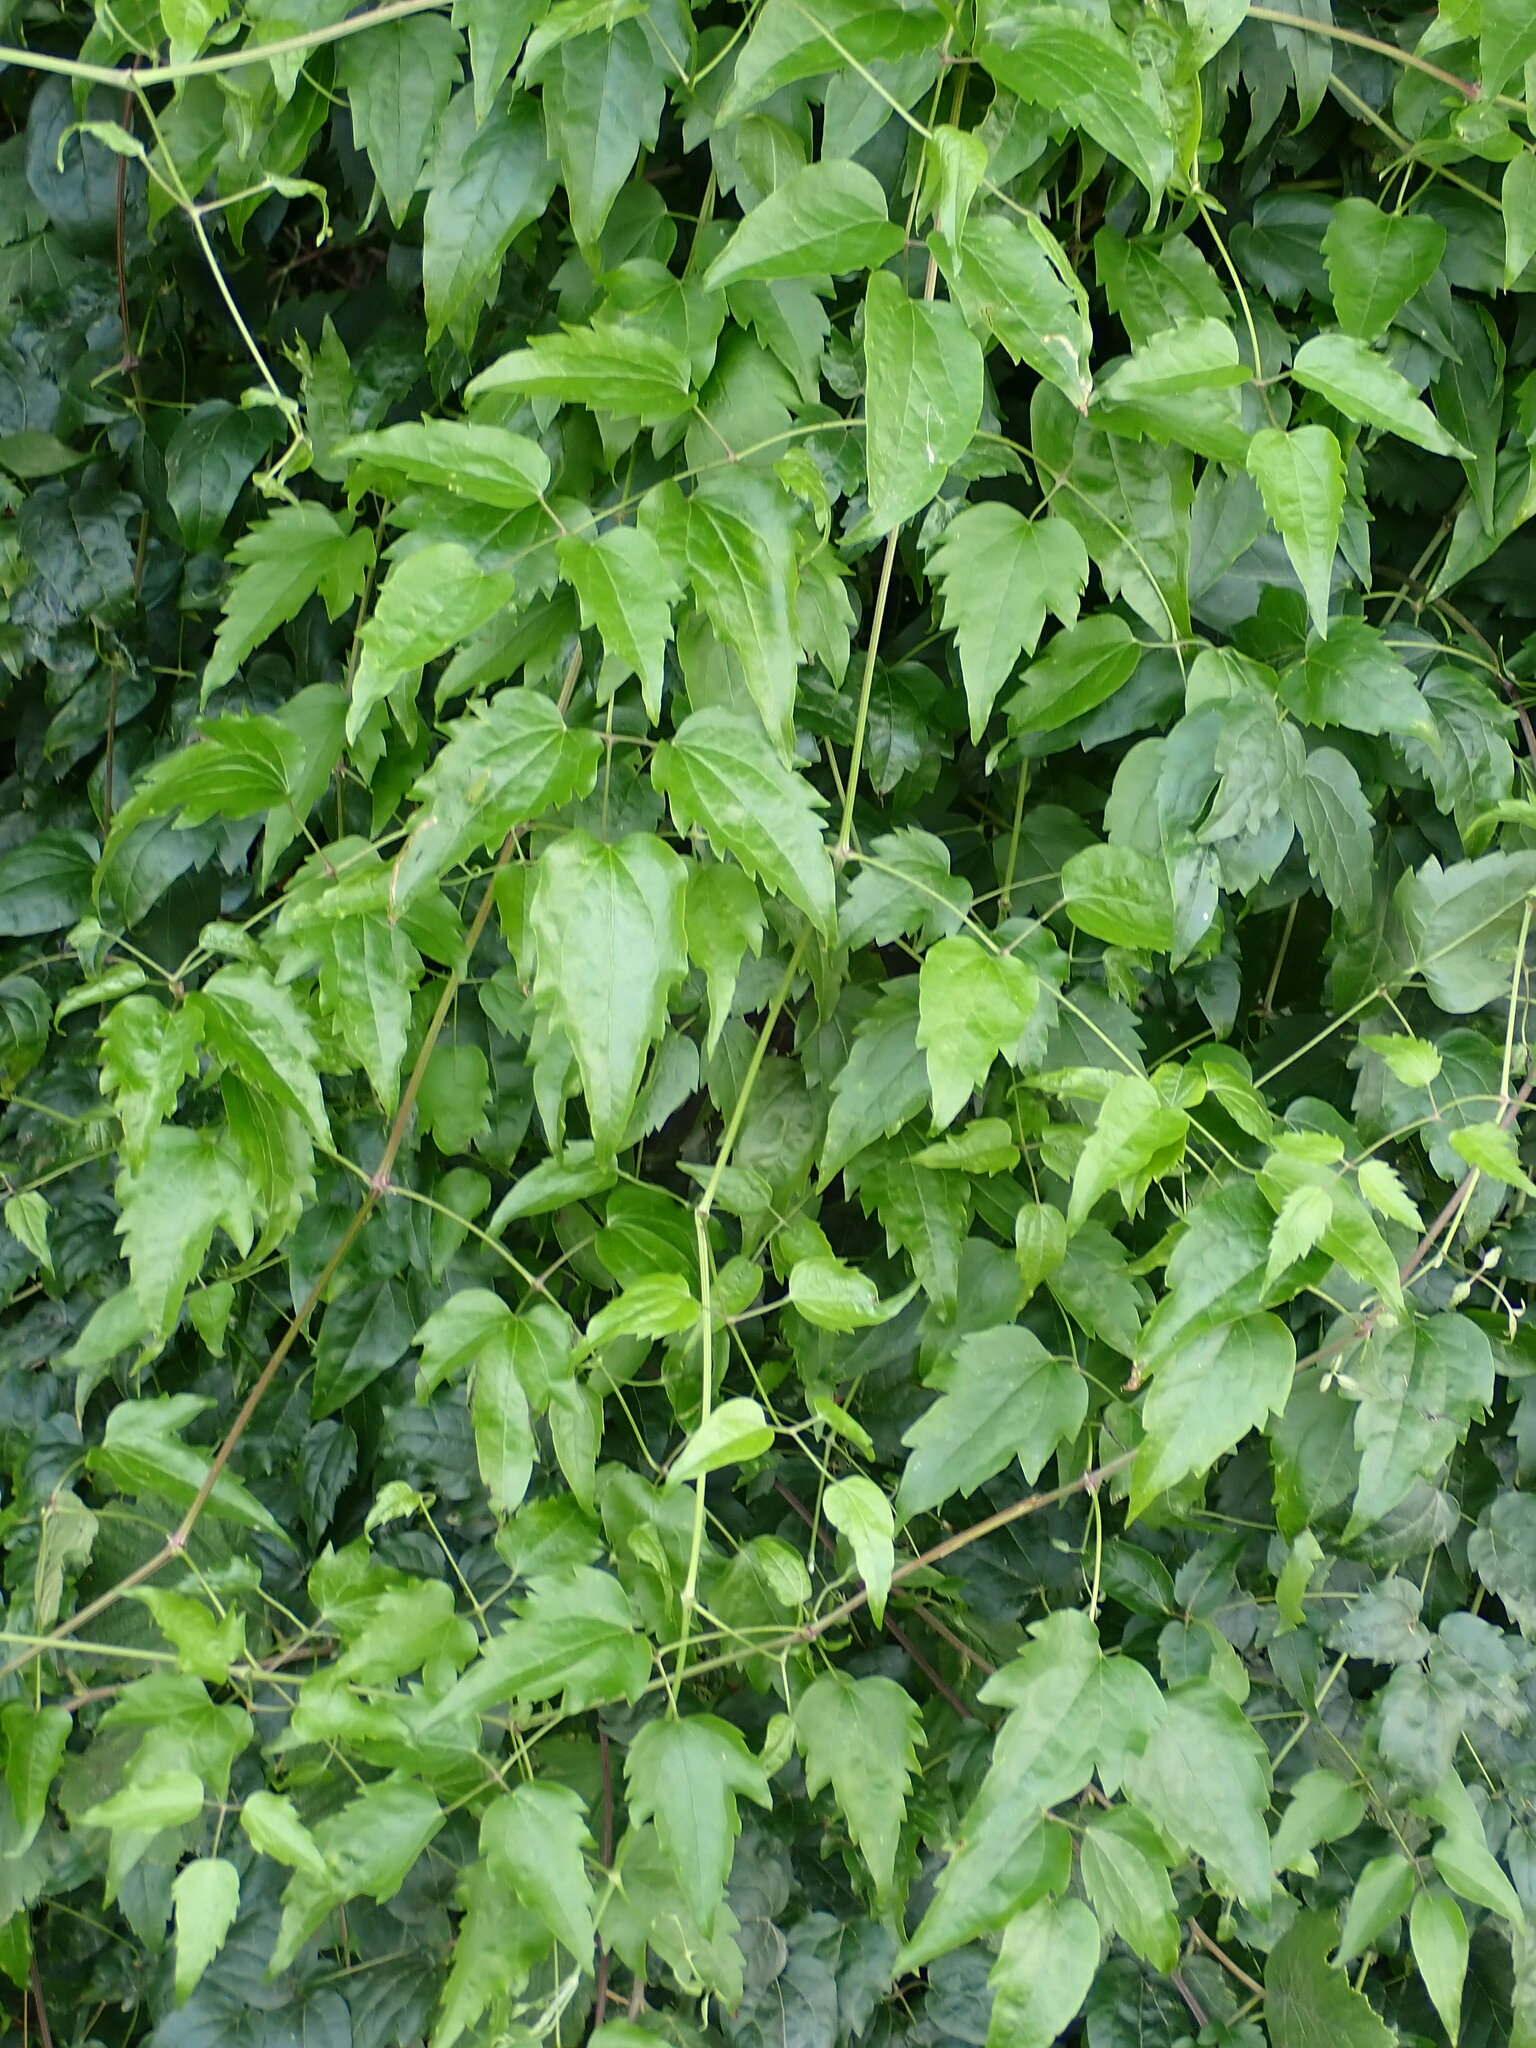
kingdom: Plantae
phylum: Tracheophyta
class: Magnoliopsida
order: Ranunculales
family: Ranunculaceae
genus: Clematis
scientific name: Clematis vitalba
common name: Evergreen clematis
